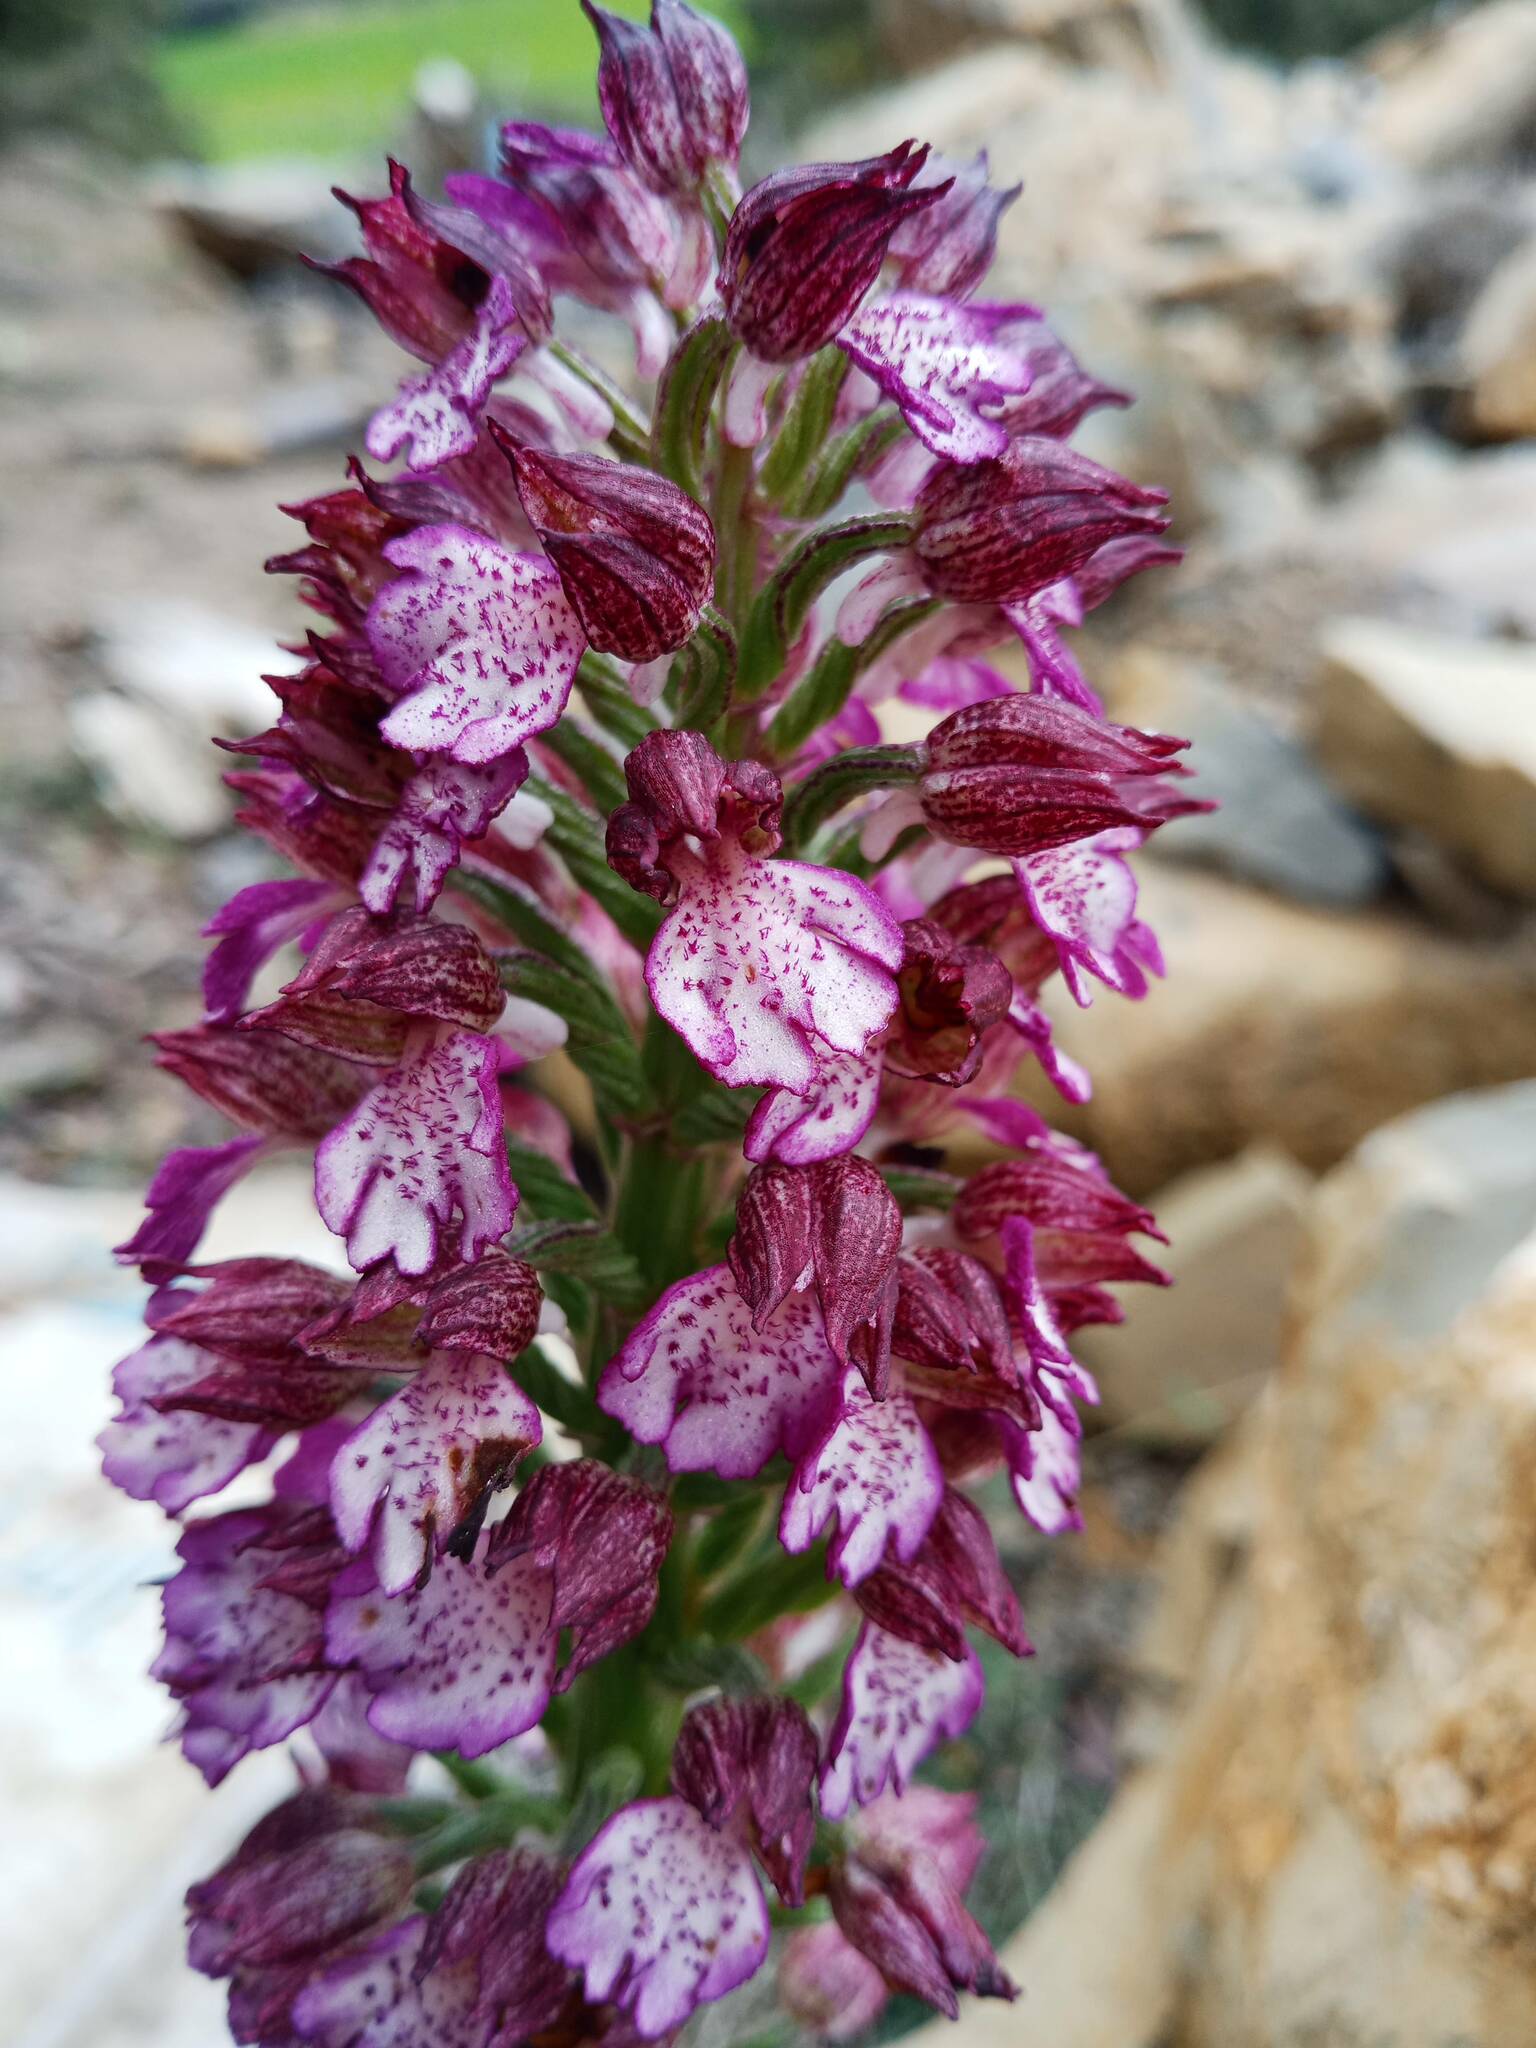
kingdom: Plantae
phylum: Tracheophyta
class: Liliopsida
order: Asparagales
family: Orchidaceae
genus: Orchis
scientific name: Orchis purpurea
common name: Lady orchid
